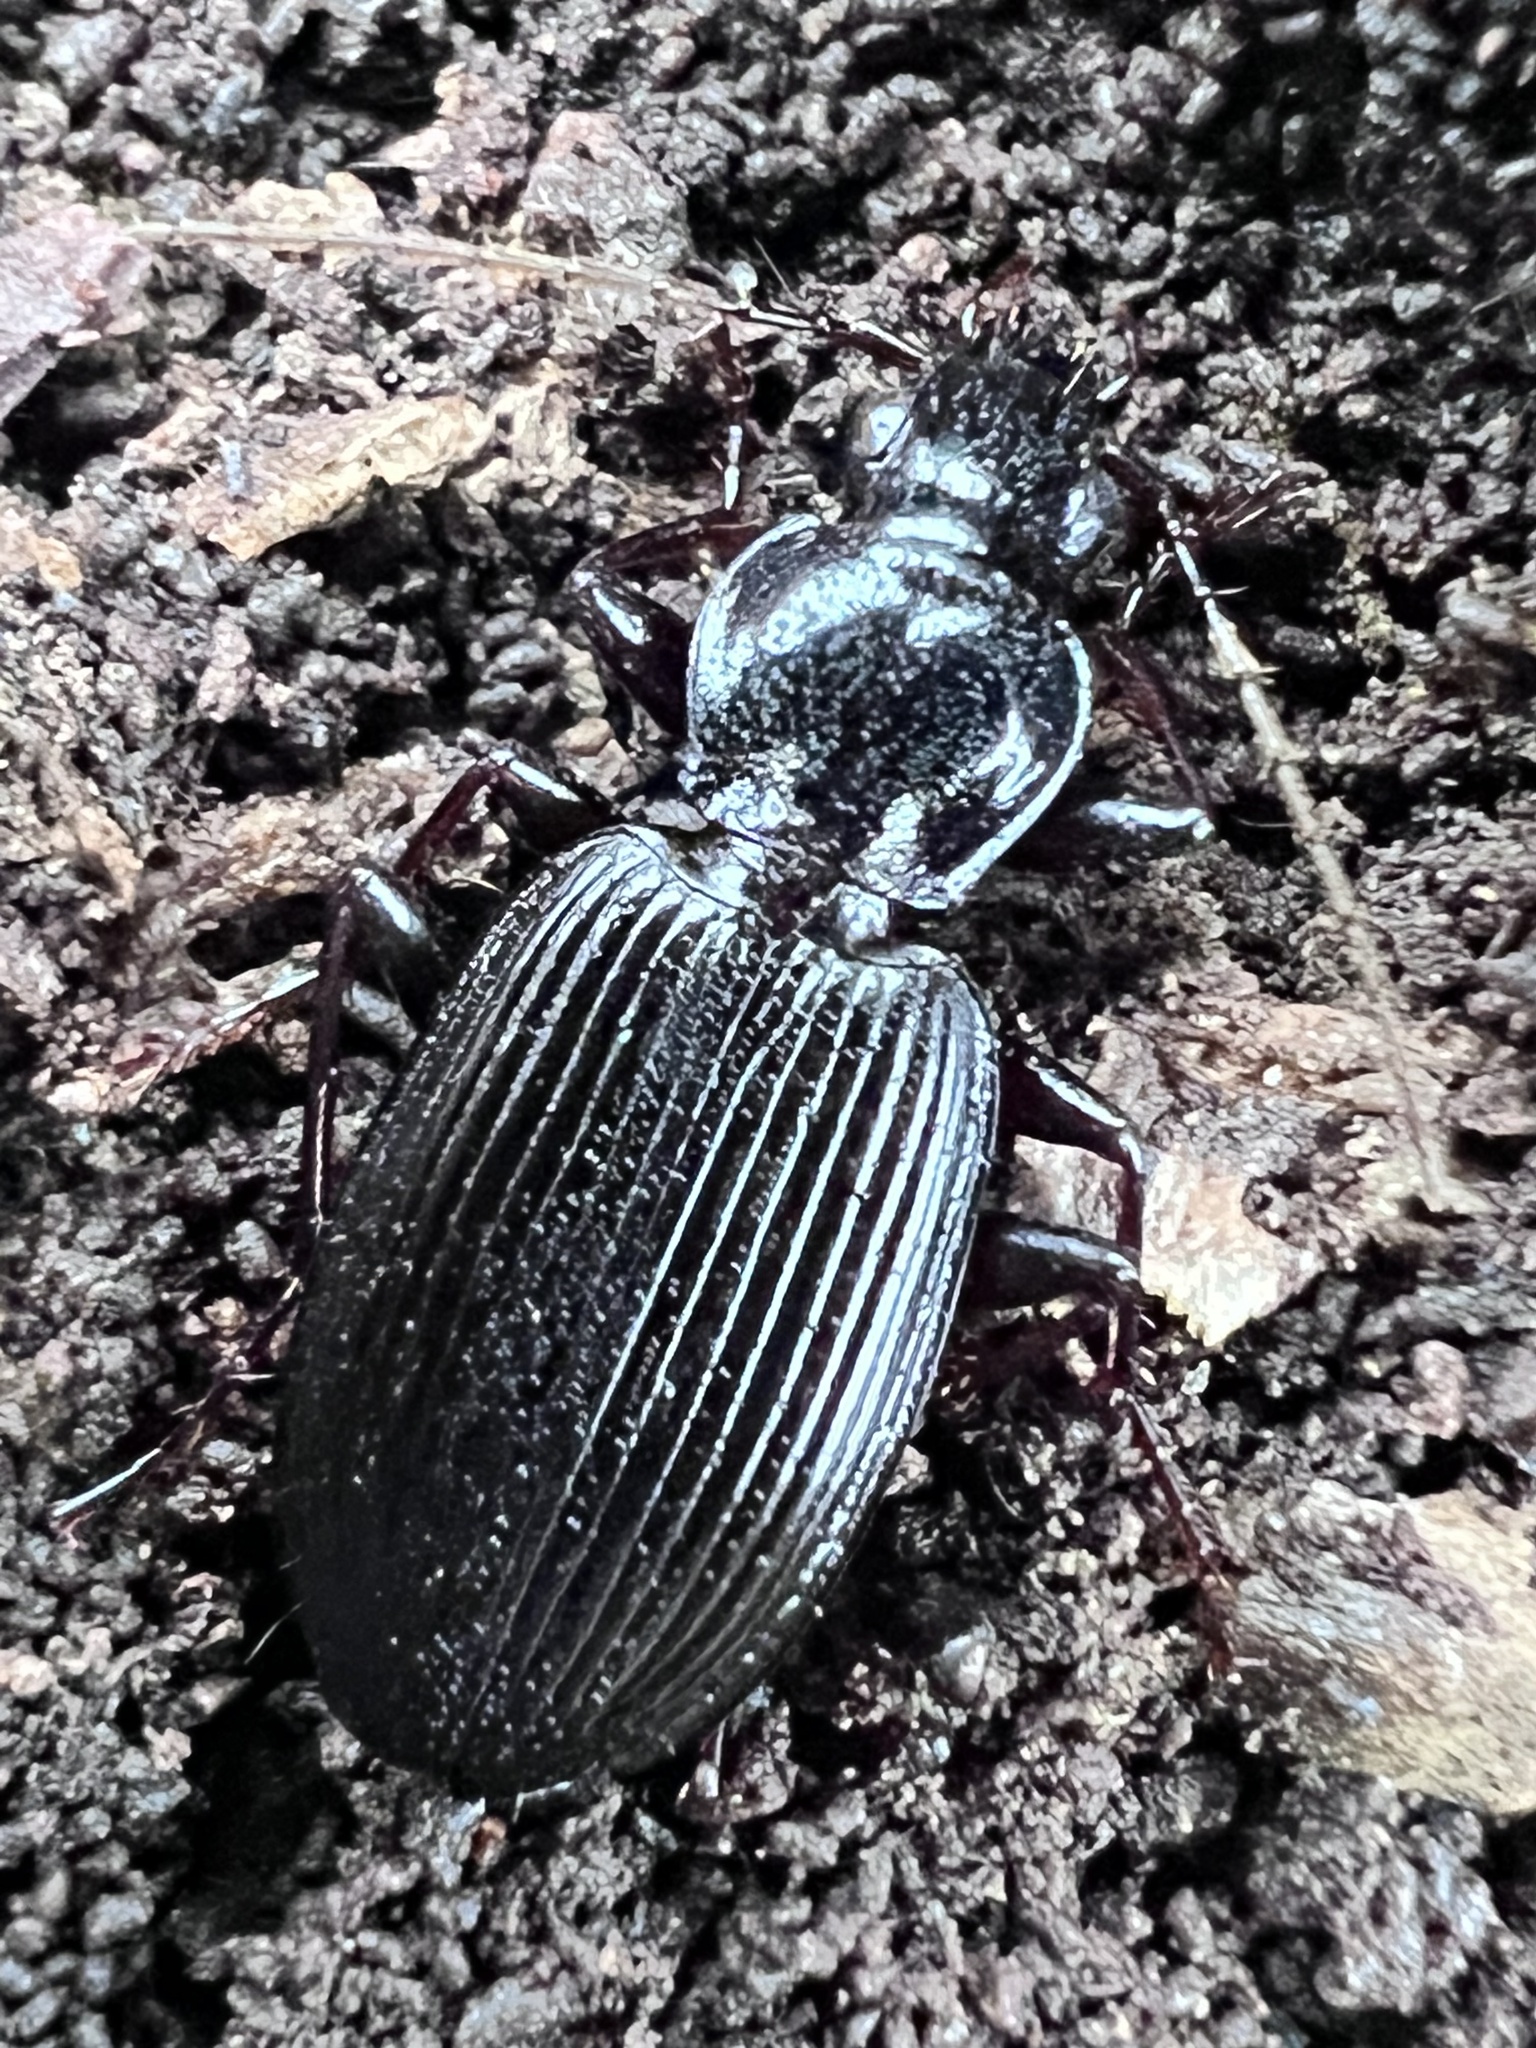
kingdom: Animalia
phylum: Arthropoda
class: Insecta
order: Coleoptera
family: Carabidae
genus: Platynus
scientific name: Platynus decentis
